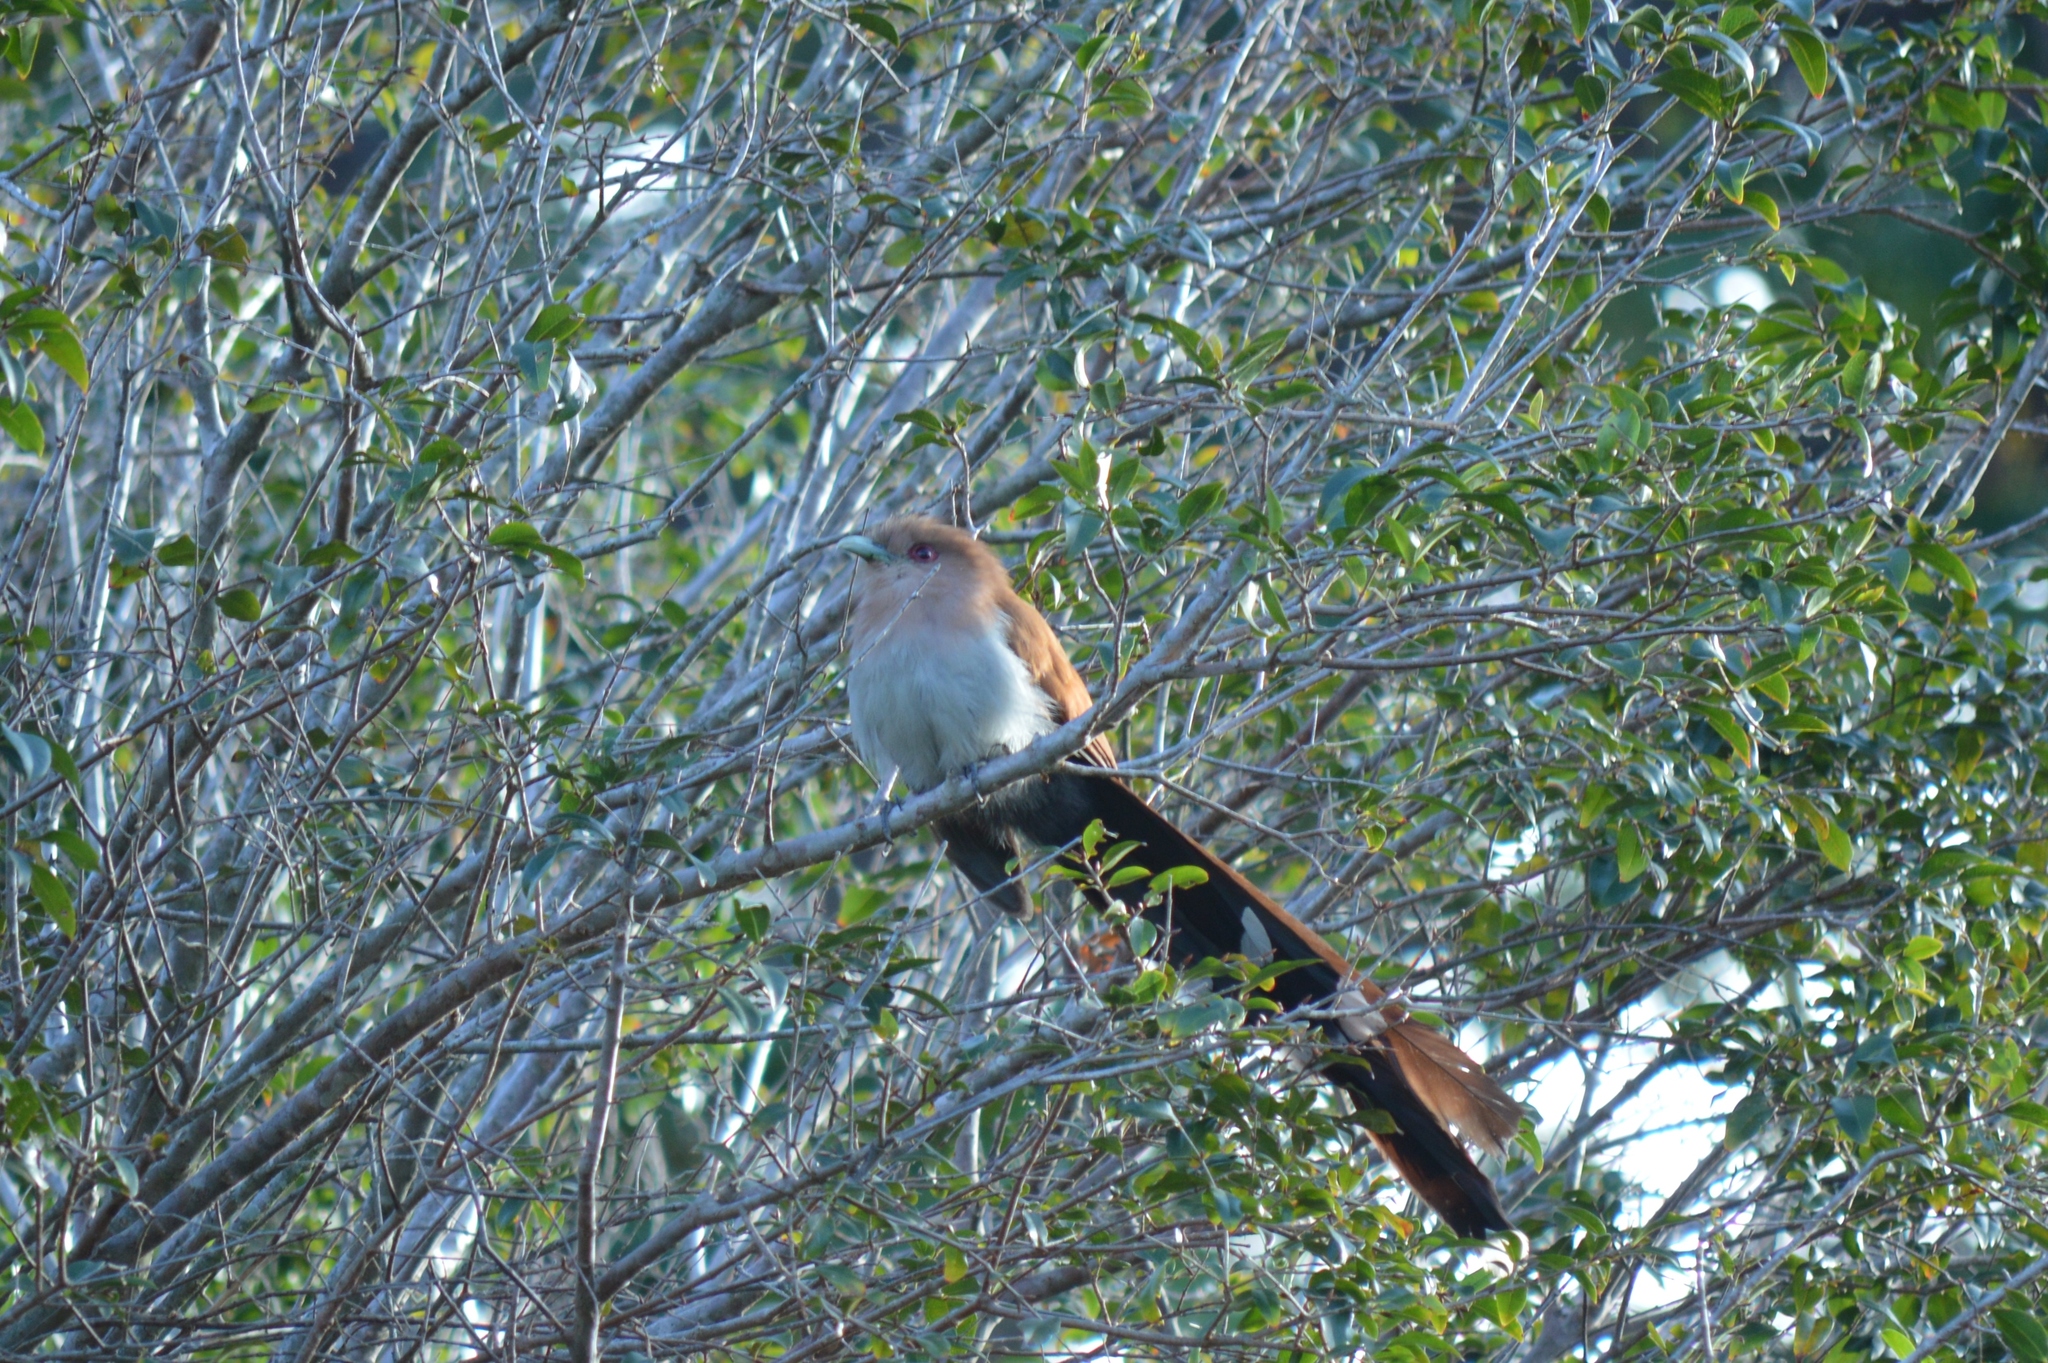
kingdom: Animalia
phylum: Chordata
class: Aves
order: Cuculiformes
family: Cuculidae
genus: Piaya
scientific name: Piaya cayana
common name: Squirrel cuckoo
